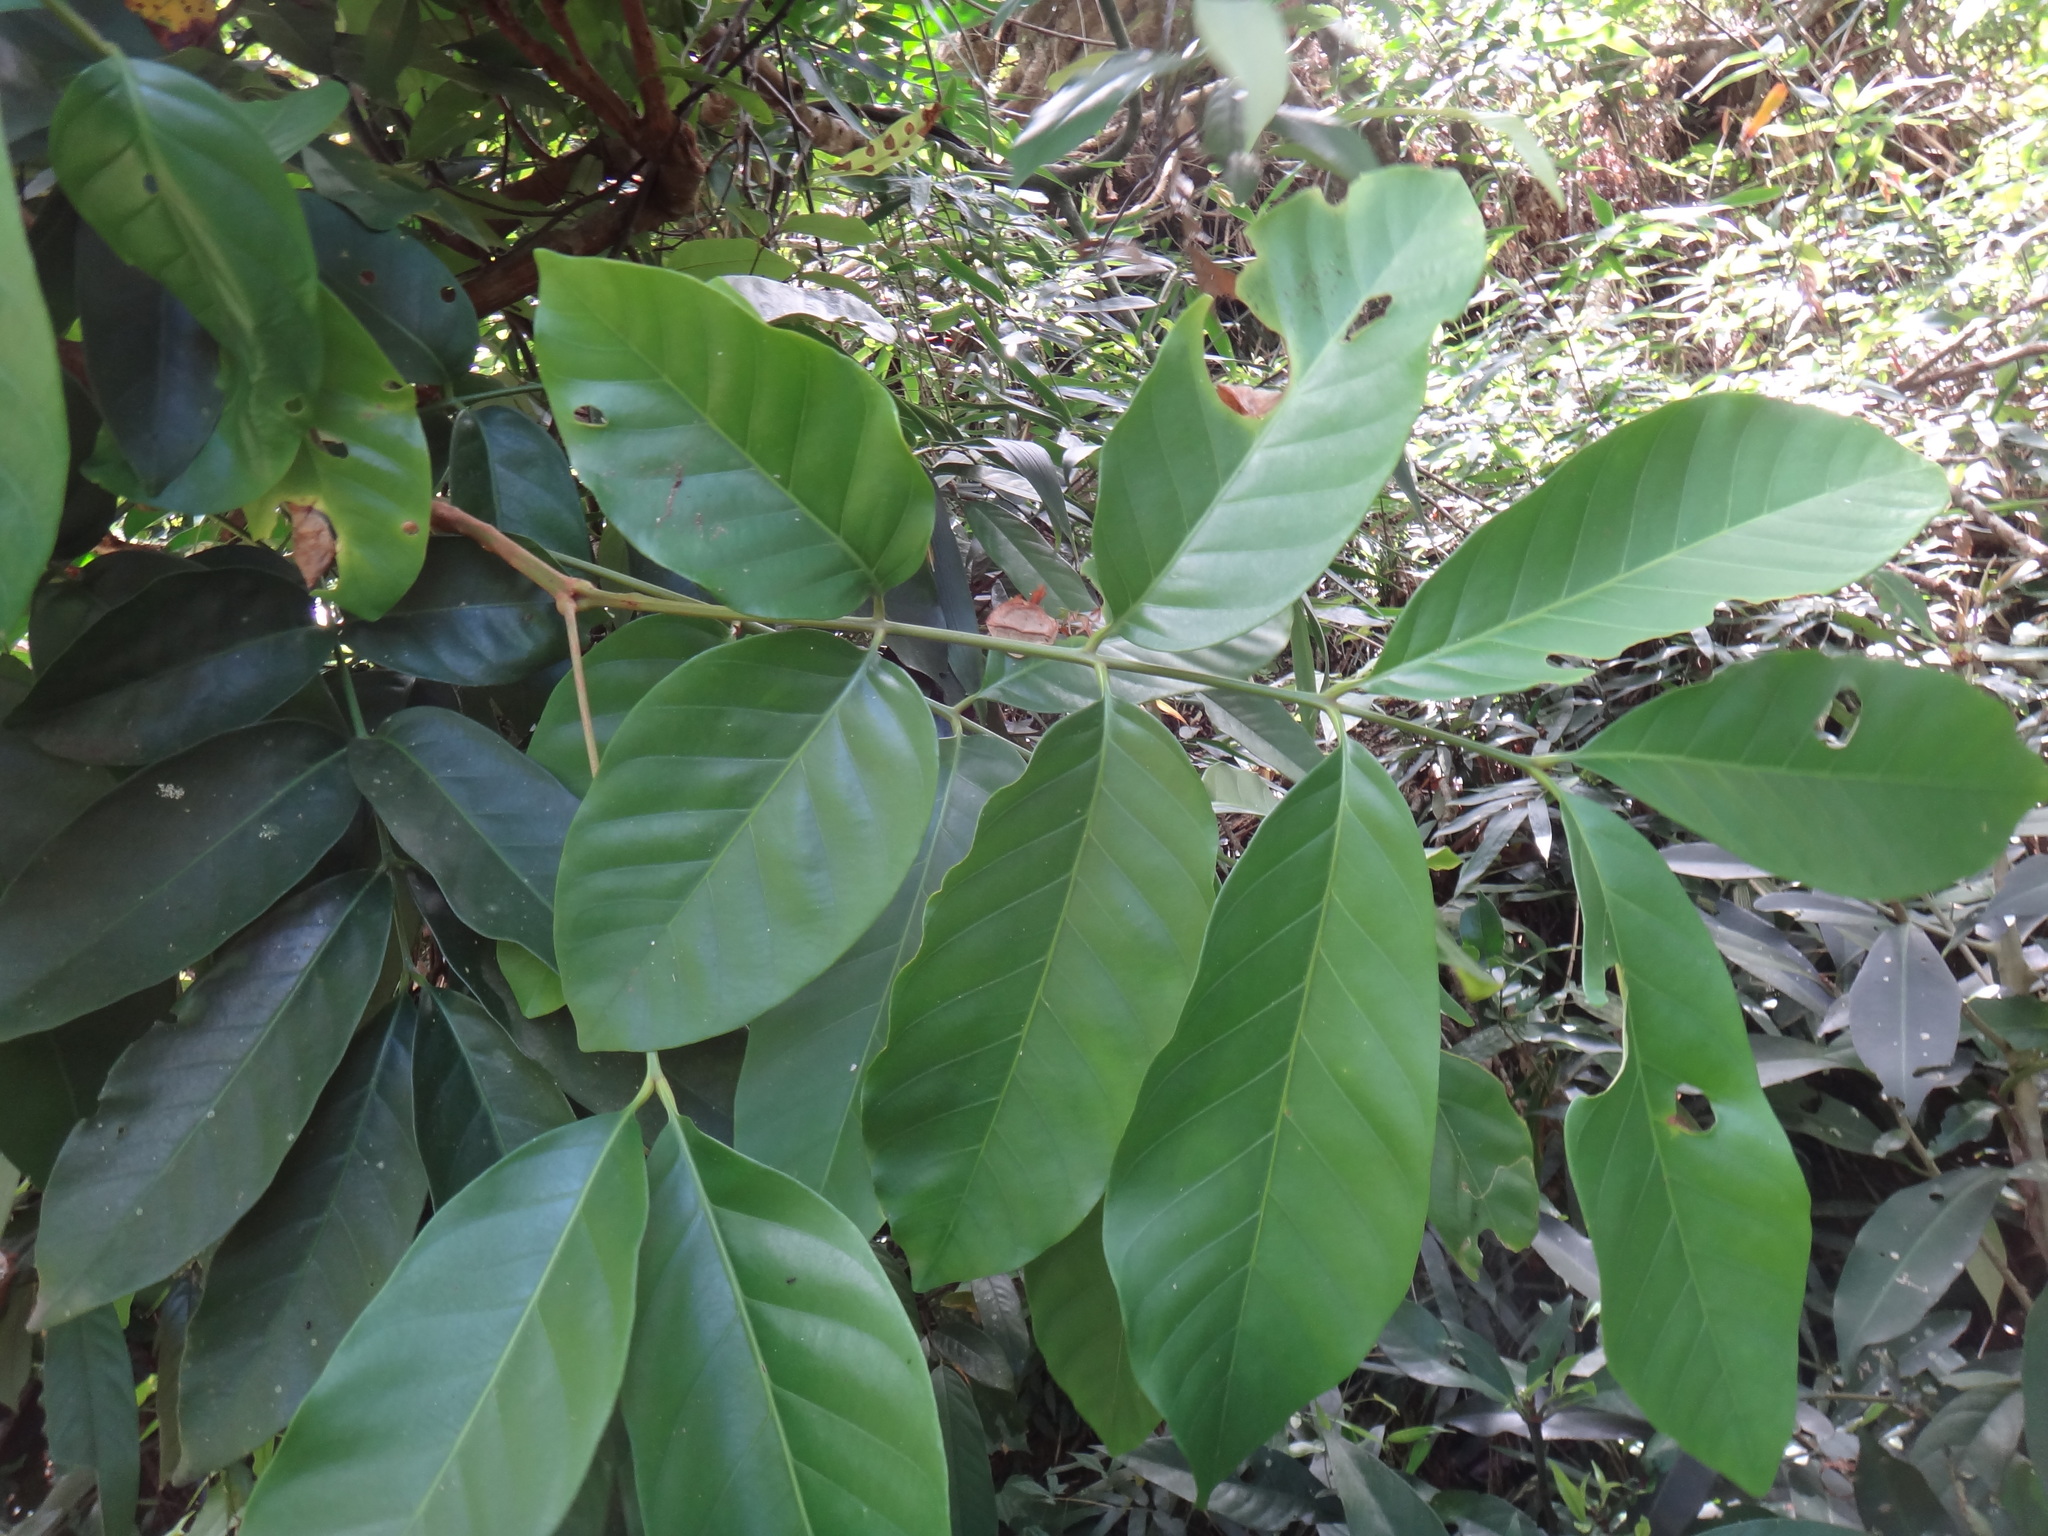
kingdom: Plantae
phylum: Tracheophyta
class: Magnoliopsida
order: Sapindales
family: Meliaceae
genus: Prasoxylon
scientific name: Prasoxylon hongkongense
